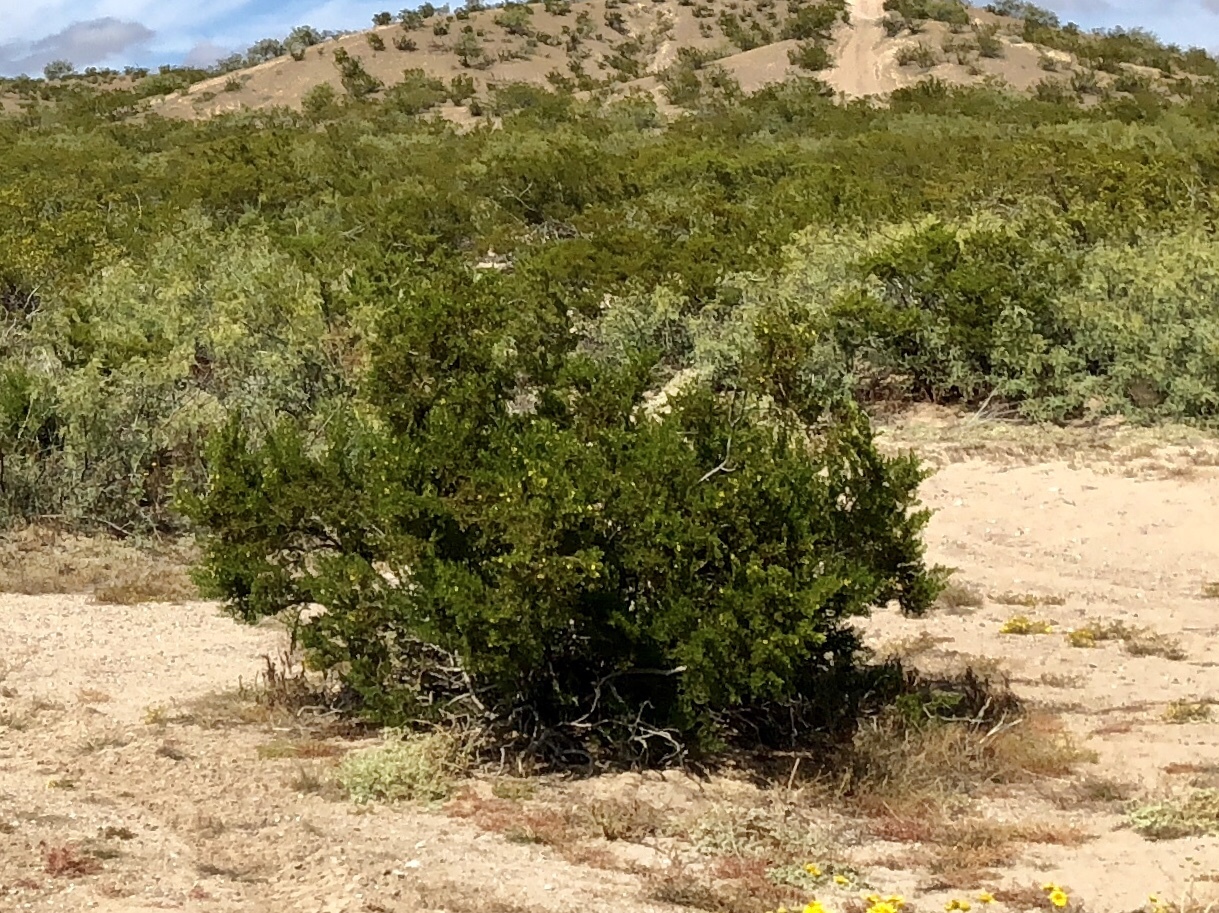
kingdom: Plantae
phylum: Tracheophyta
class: Magnoliopsida
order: Zygophyllales
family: Zygophyllaceae
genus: Larrea
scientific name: Larrea tridentata
